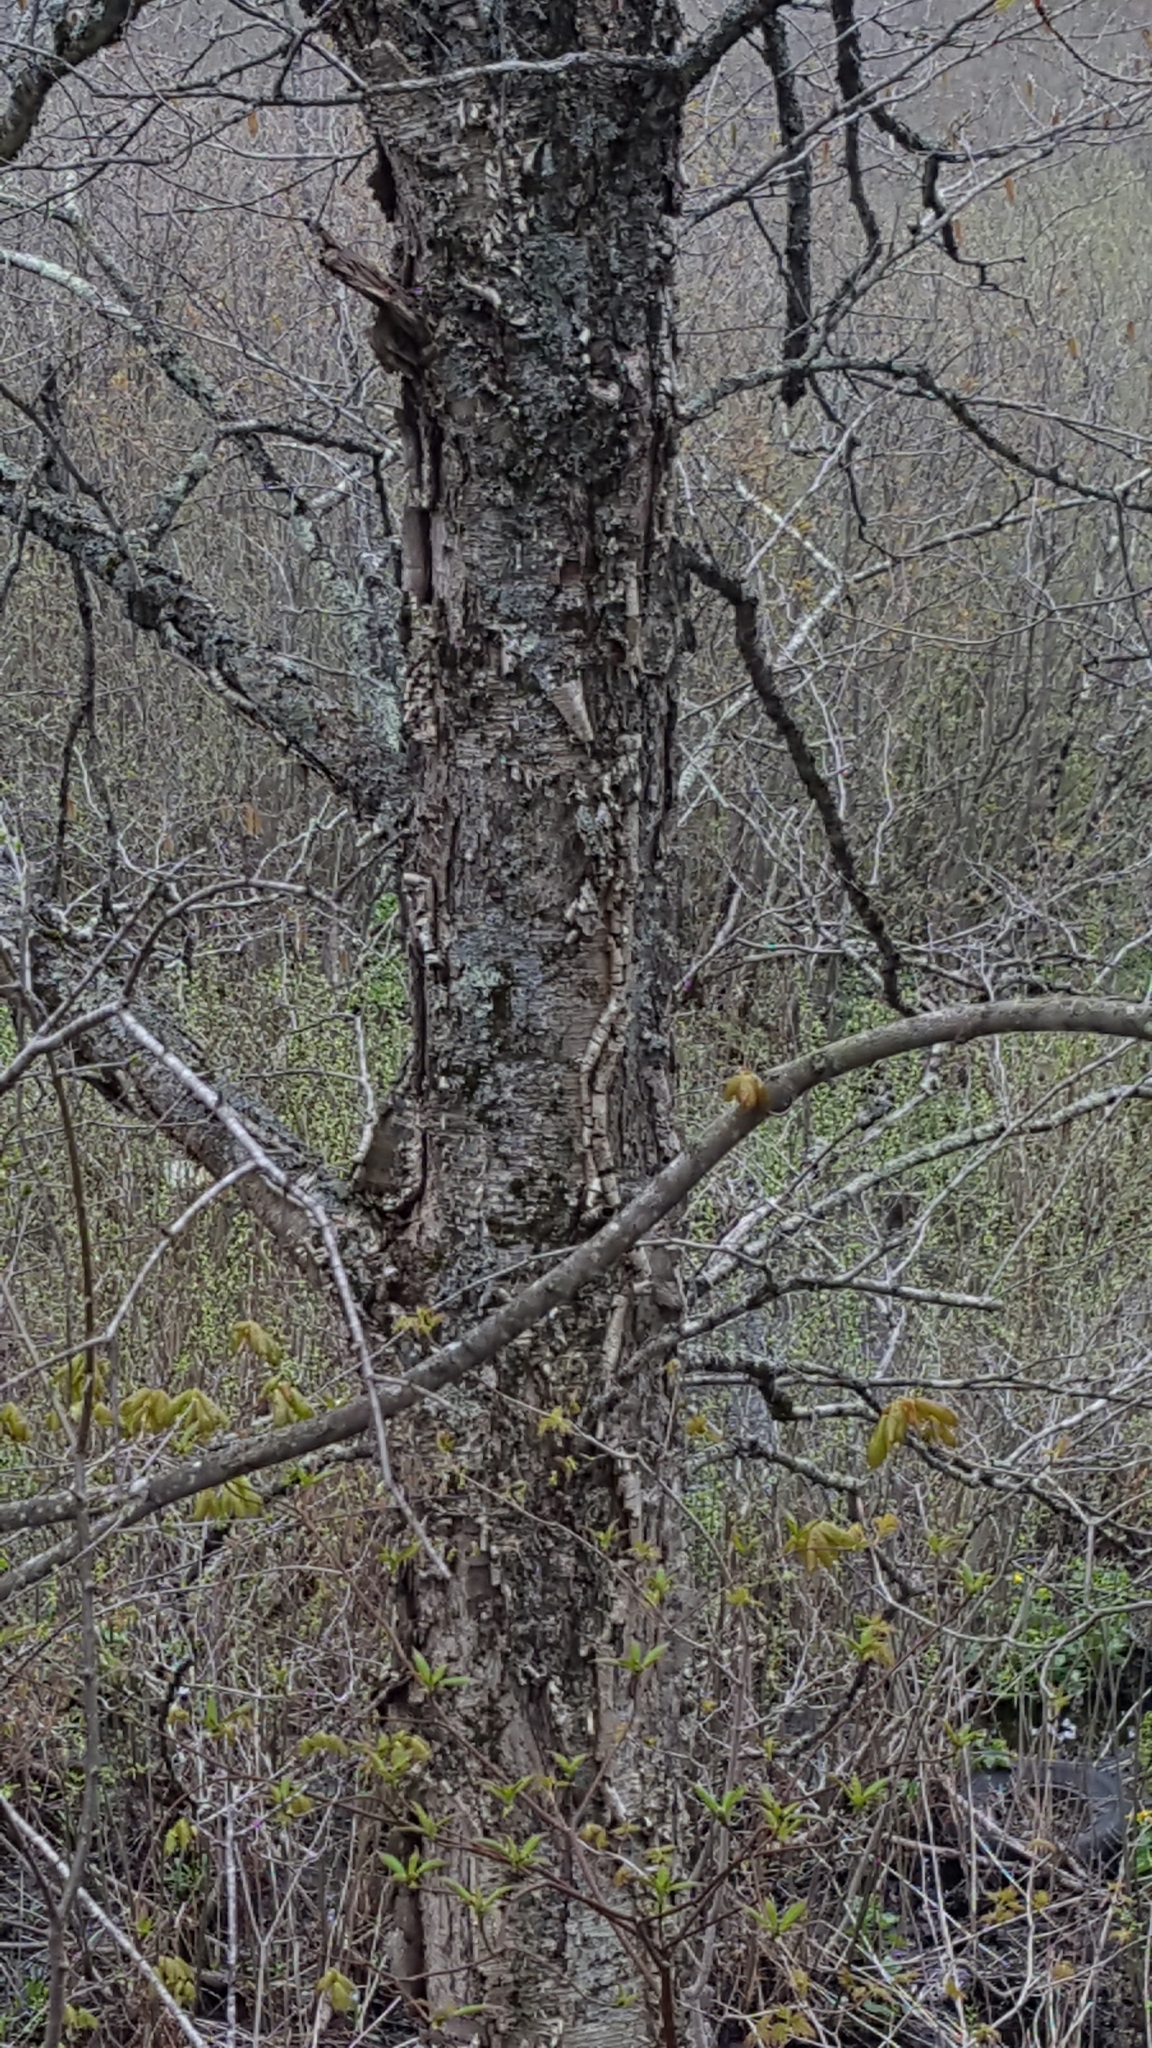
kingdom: Plantae
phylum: Tracheophyta
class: Magnoliopsida
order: Fagales
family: Betulaceae
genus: Betula
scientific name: Betula alleghaniensis
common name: Yellow birch
